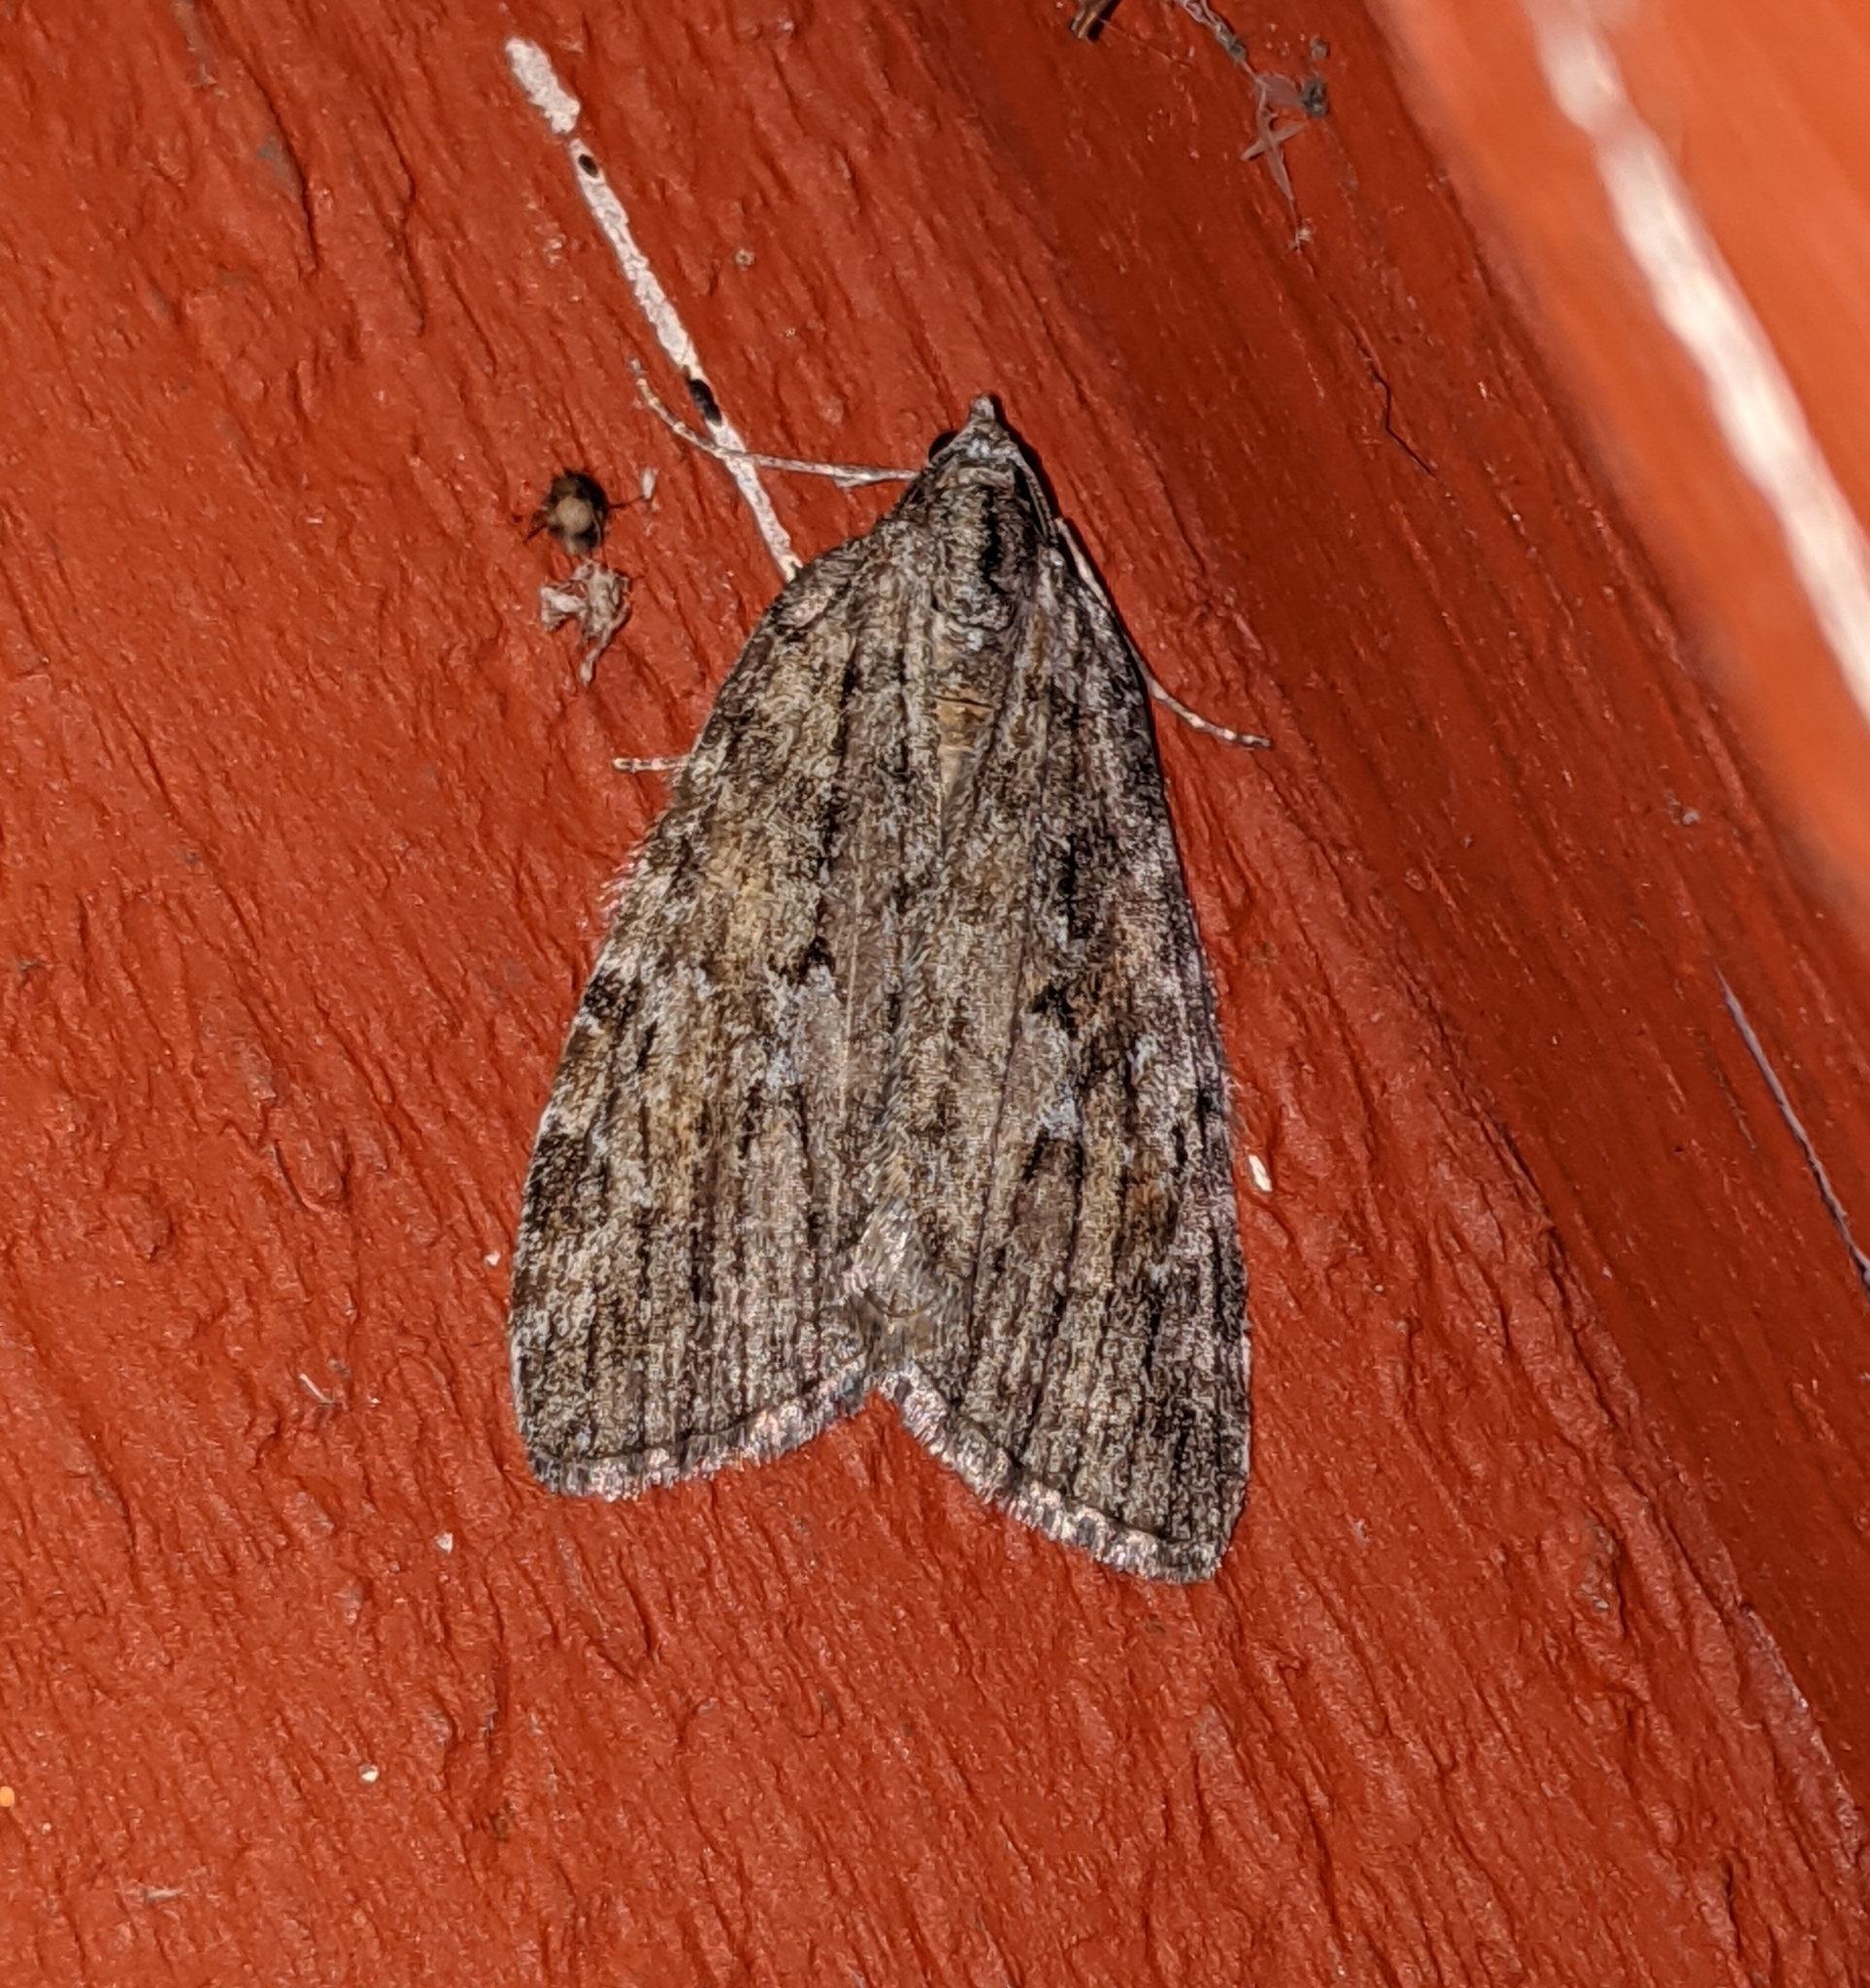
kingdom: Animalia
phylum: Arthropoda
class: Insecta
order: Lepidoptera
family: Geometridae
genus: Hydriomena
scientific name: Hydriomena manzanita
